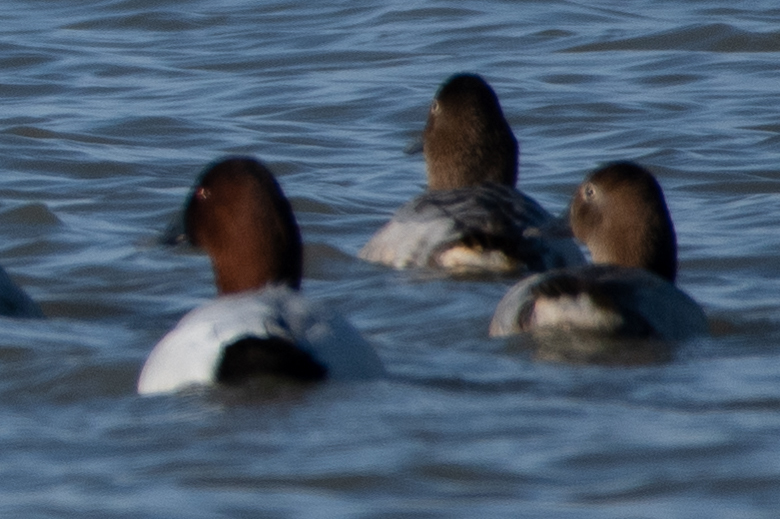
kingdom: Animalia
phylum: Chordata
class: Aves
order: Anseriformes
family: Anatidae
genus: Aythya
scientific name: Aythya valisineria
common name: Canvasback
